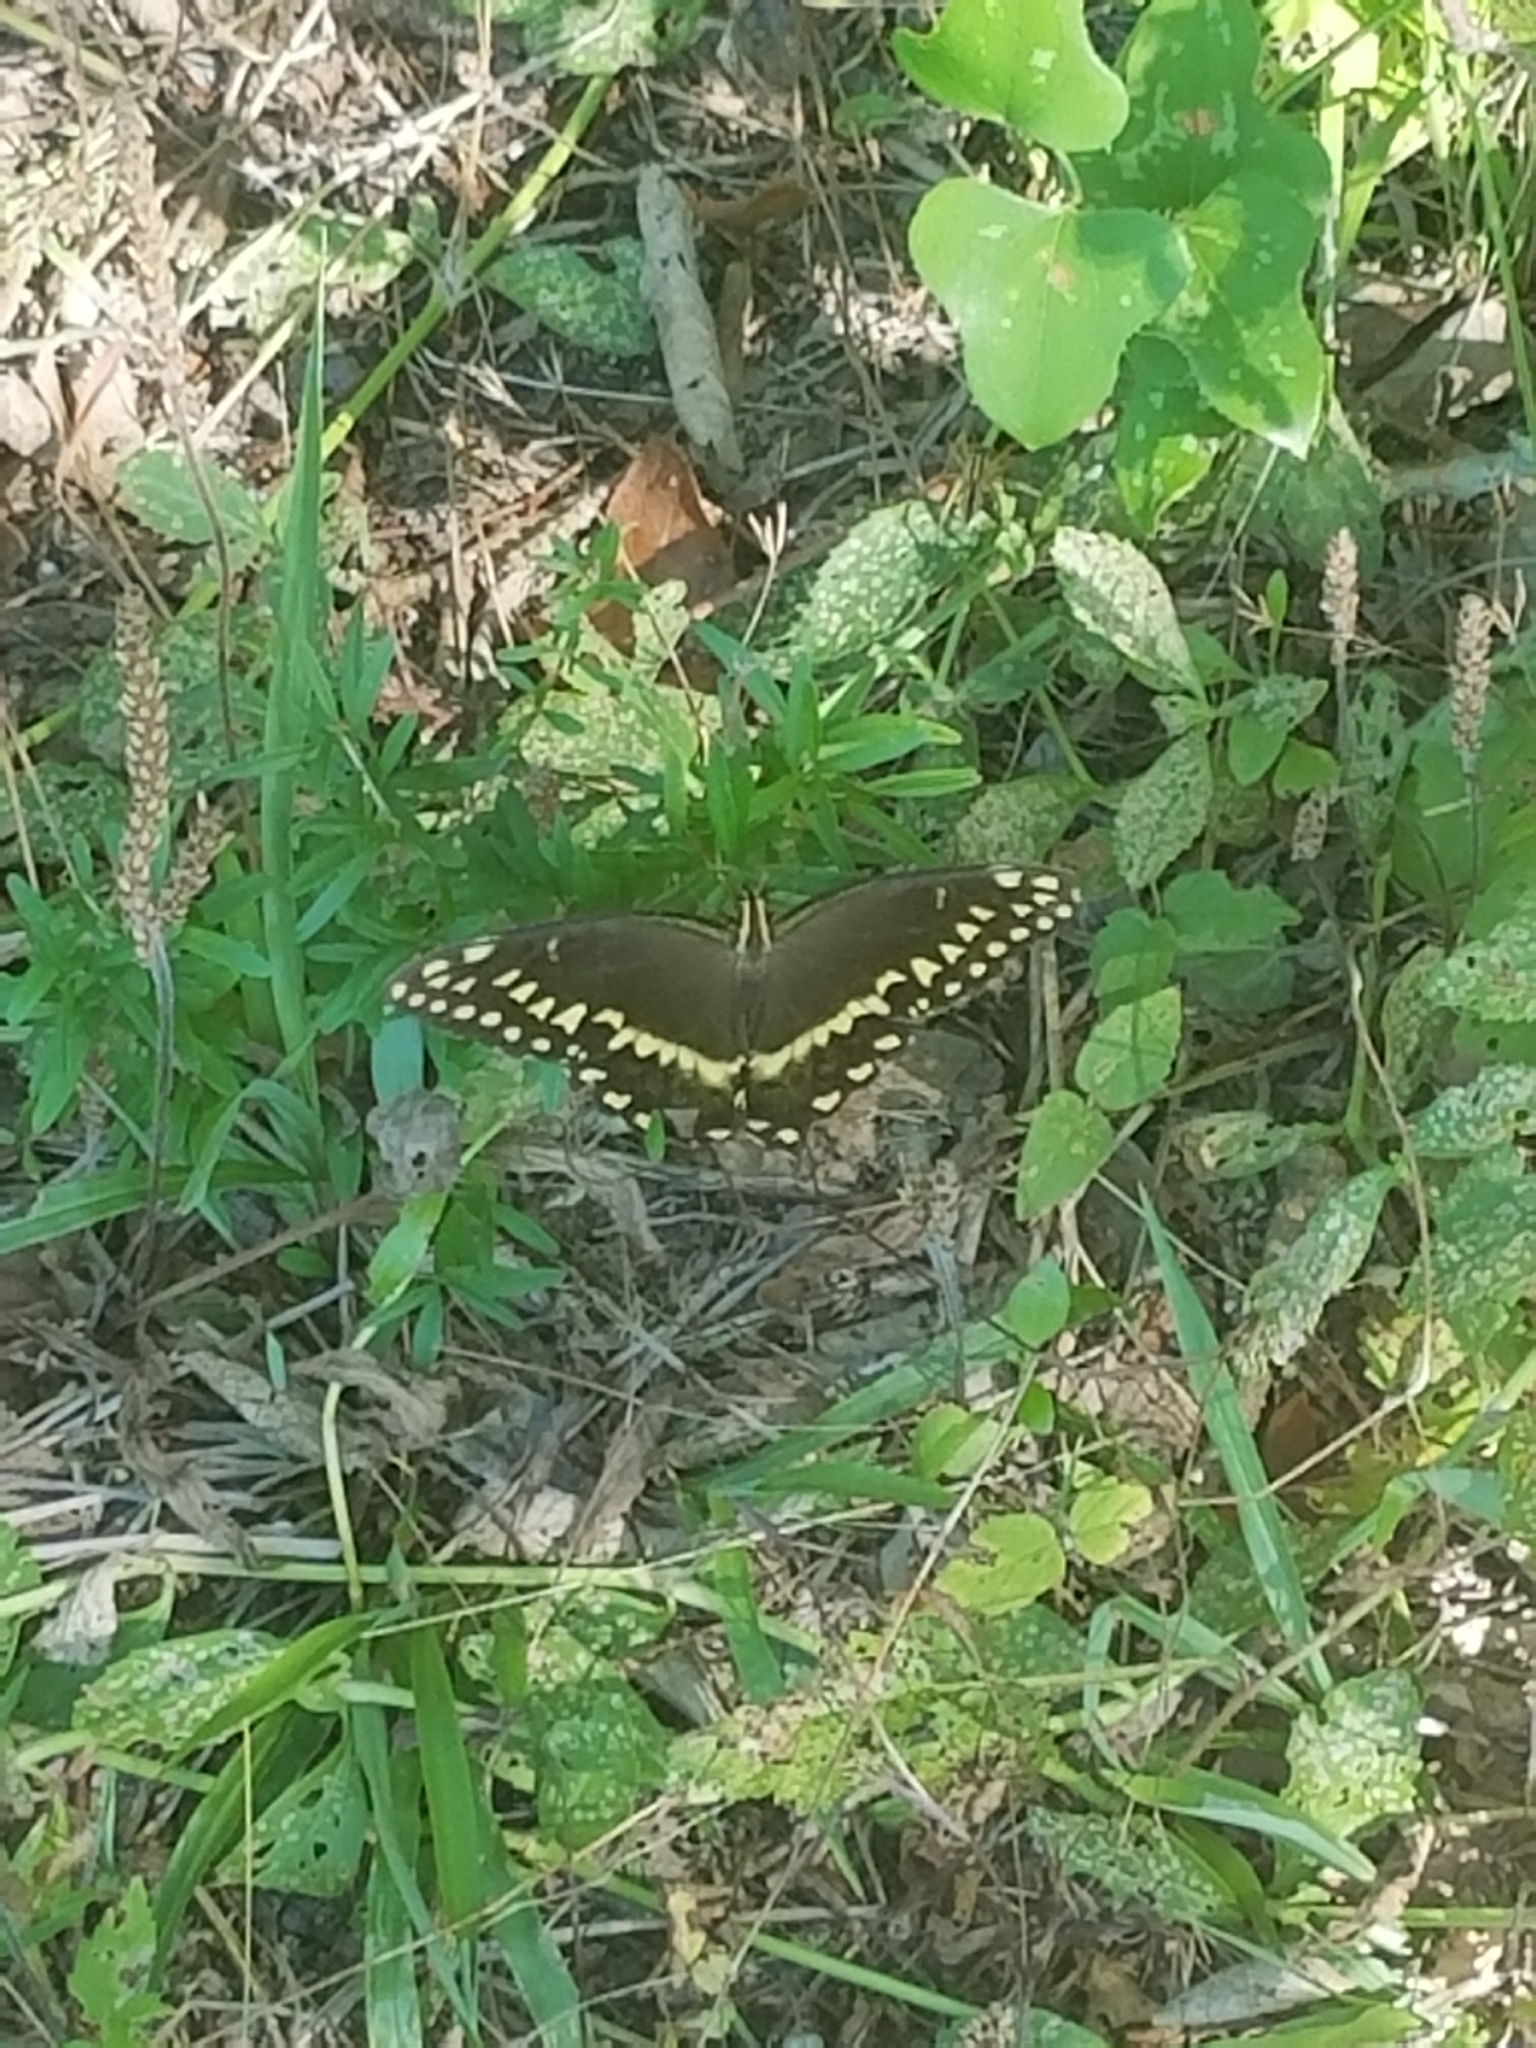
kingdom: Animalia
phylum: Arthropoda
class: Insecta
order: Lepidoptera
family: Papilionidae
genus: Papilio
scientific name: Papilio palamedes
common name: Palamedes swallowtail
